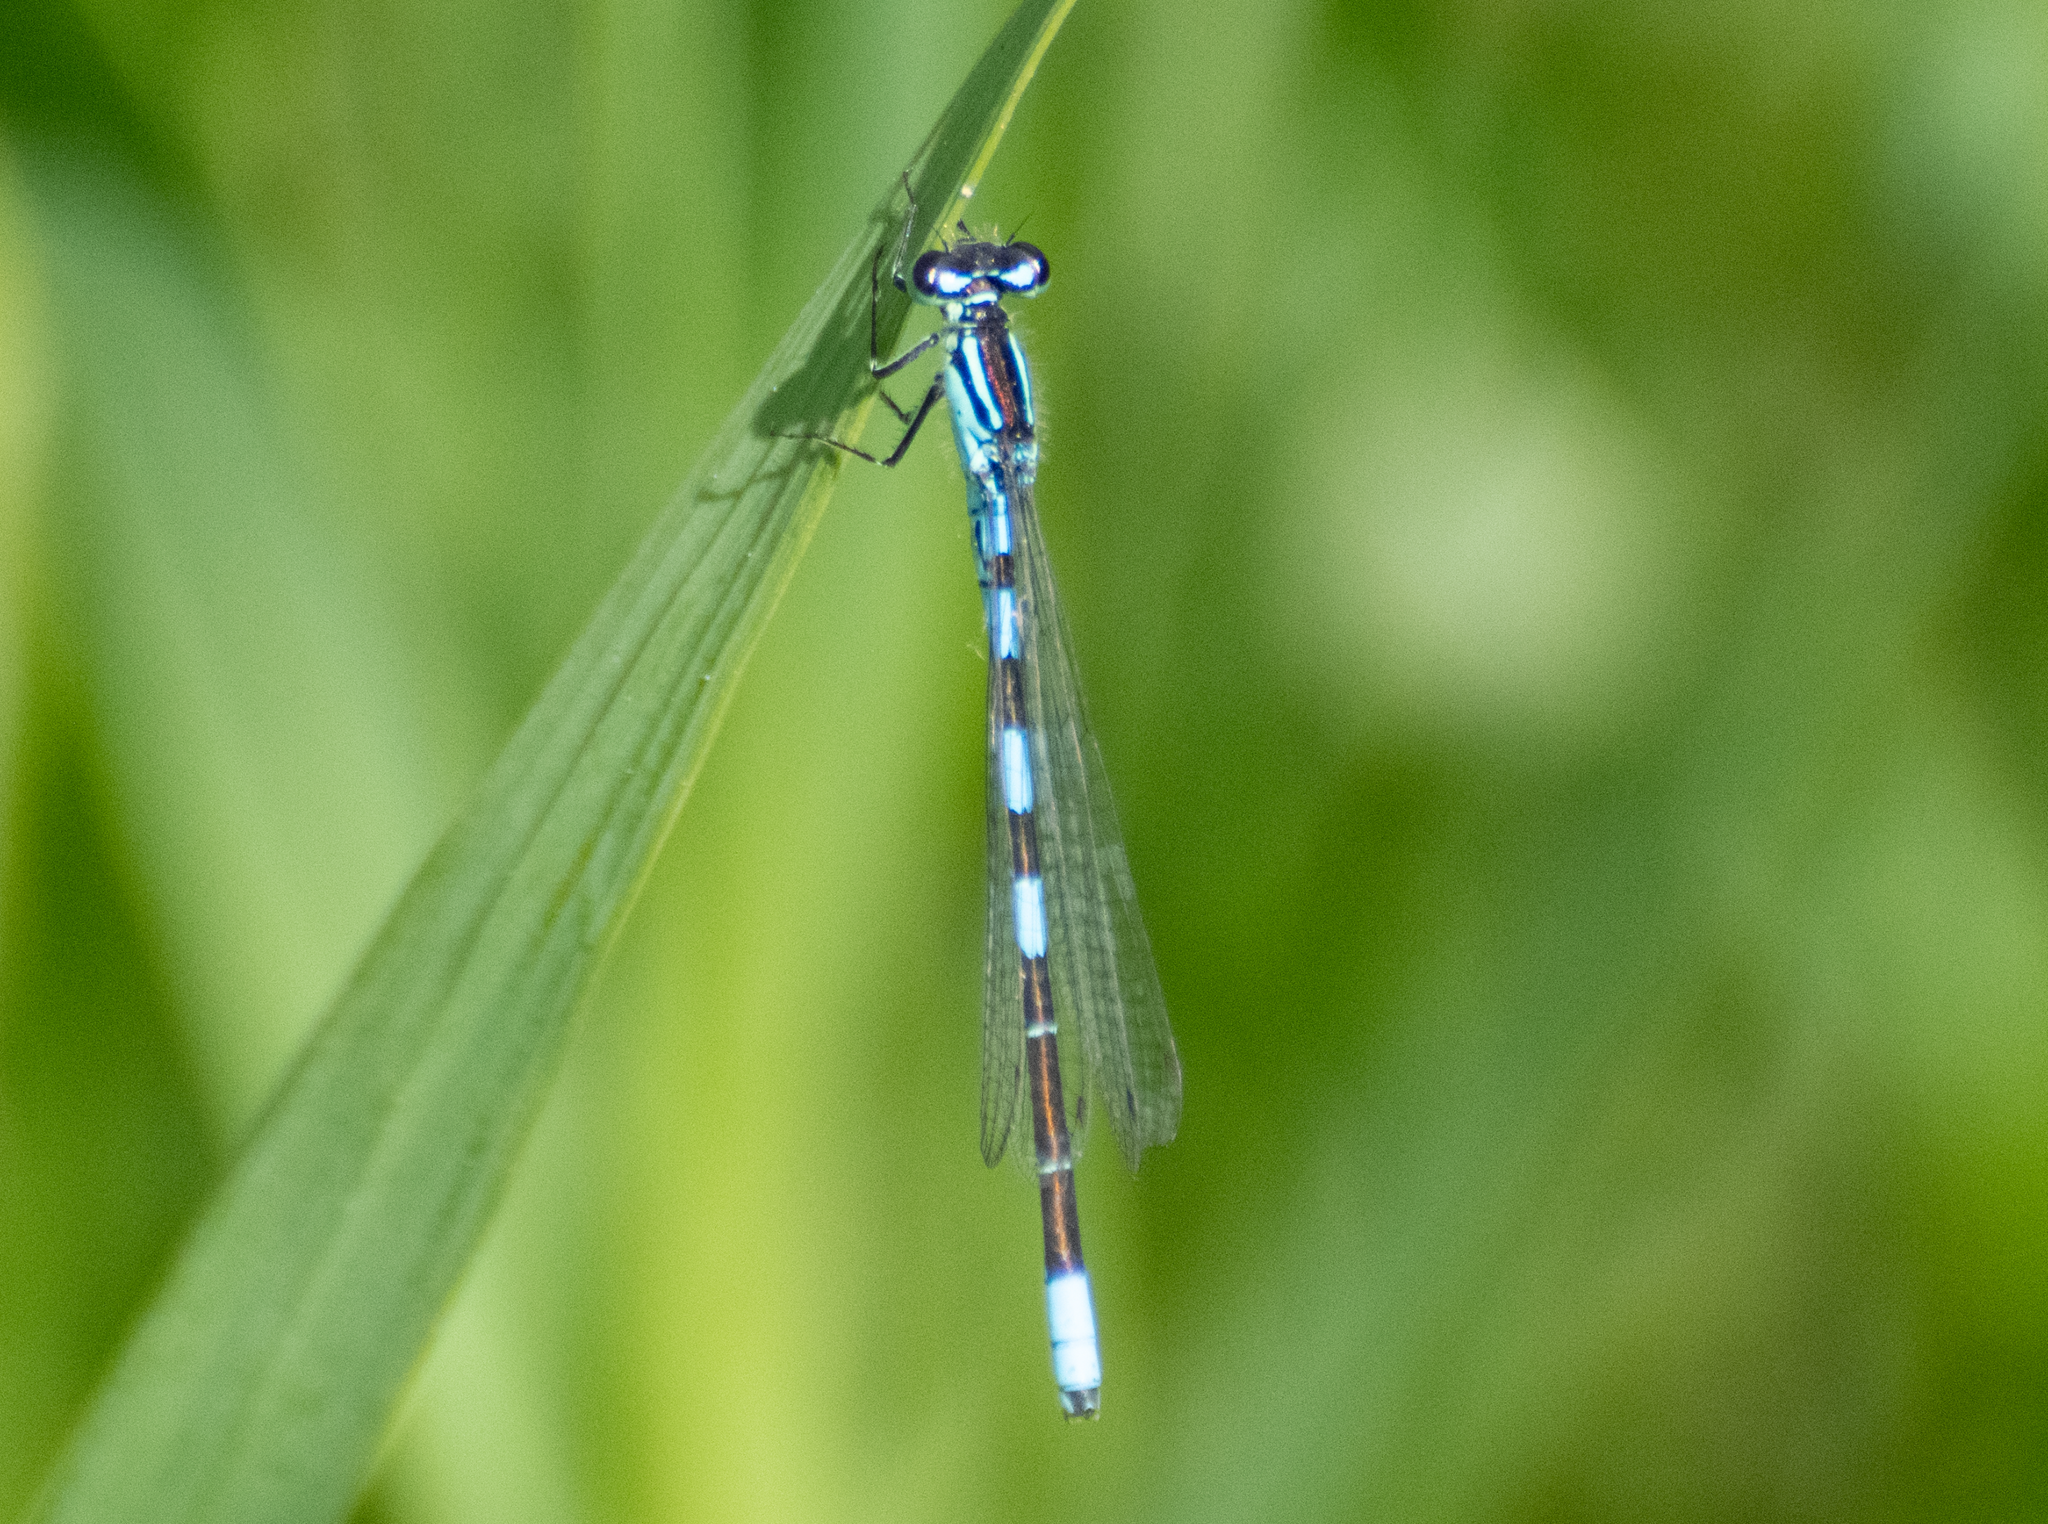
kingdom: Animalia
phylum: Arthropoda
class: Insecta
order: Odonata
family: Coenagrionidae
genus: Coenagrion
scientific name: Coenagrion resolutum
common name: Taiga bluet
